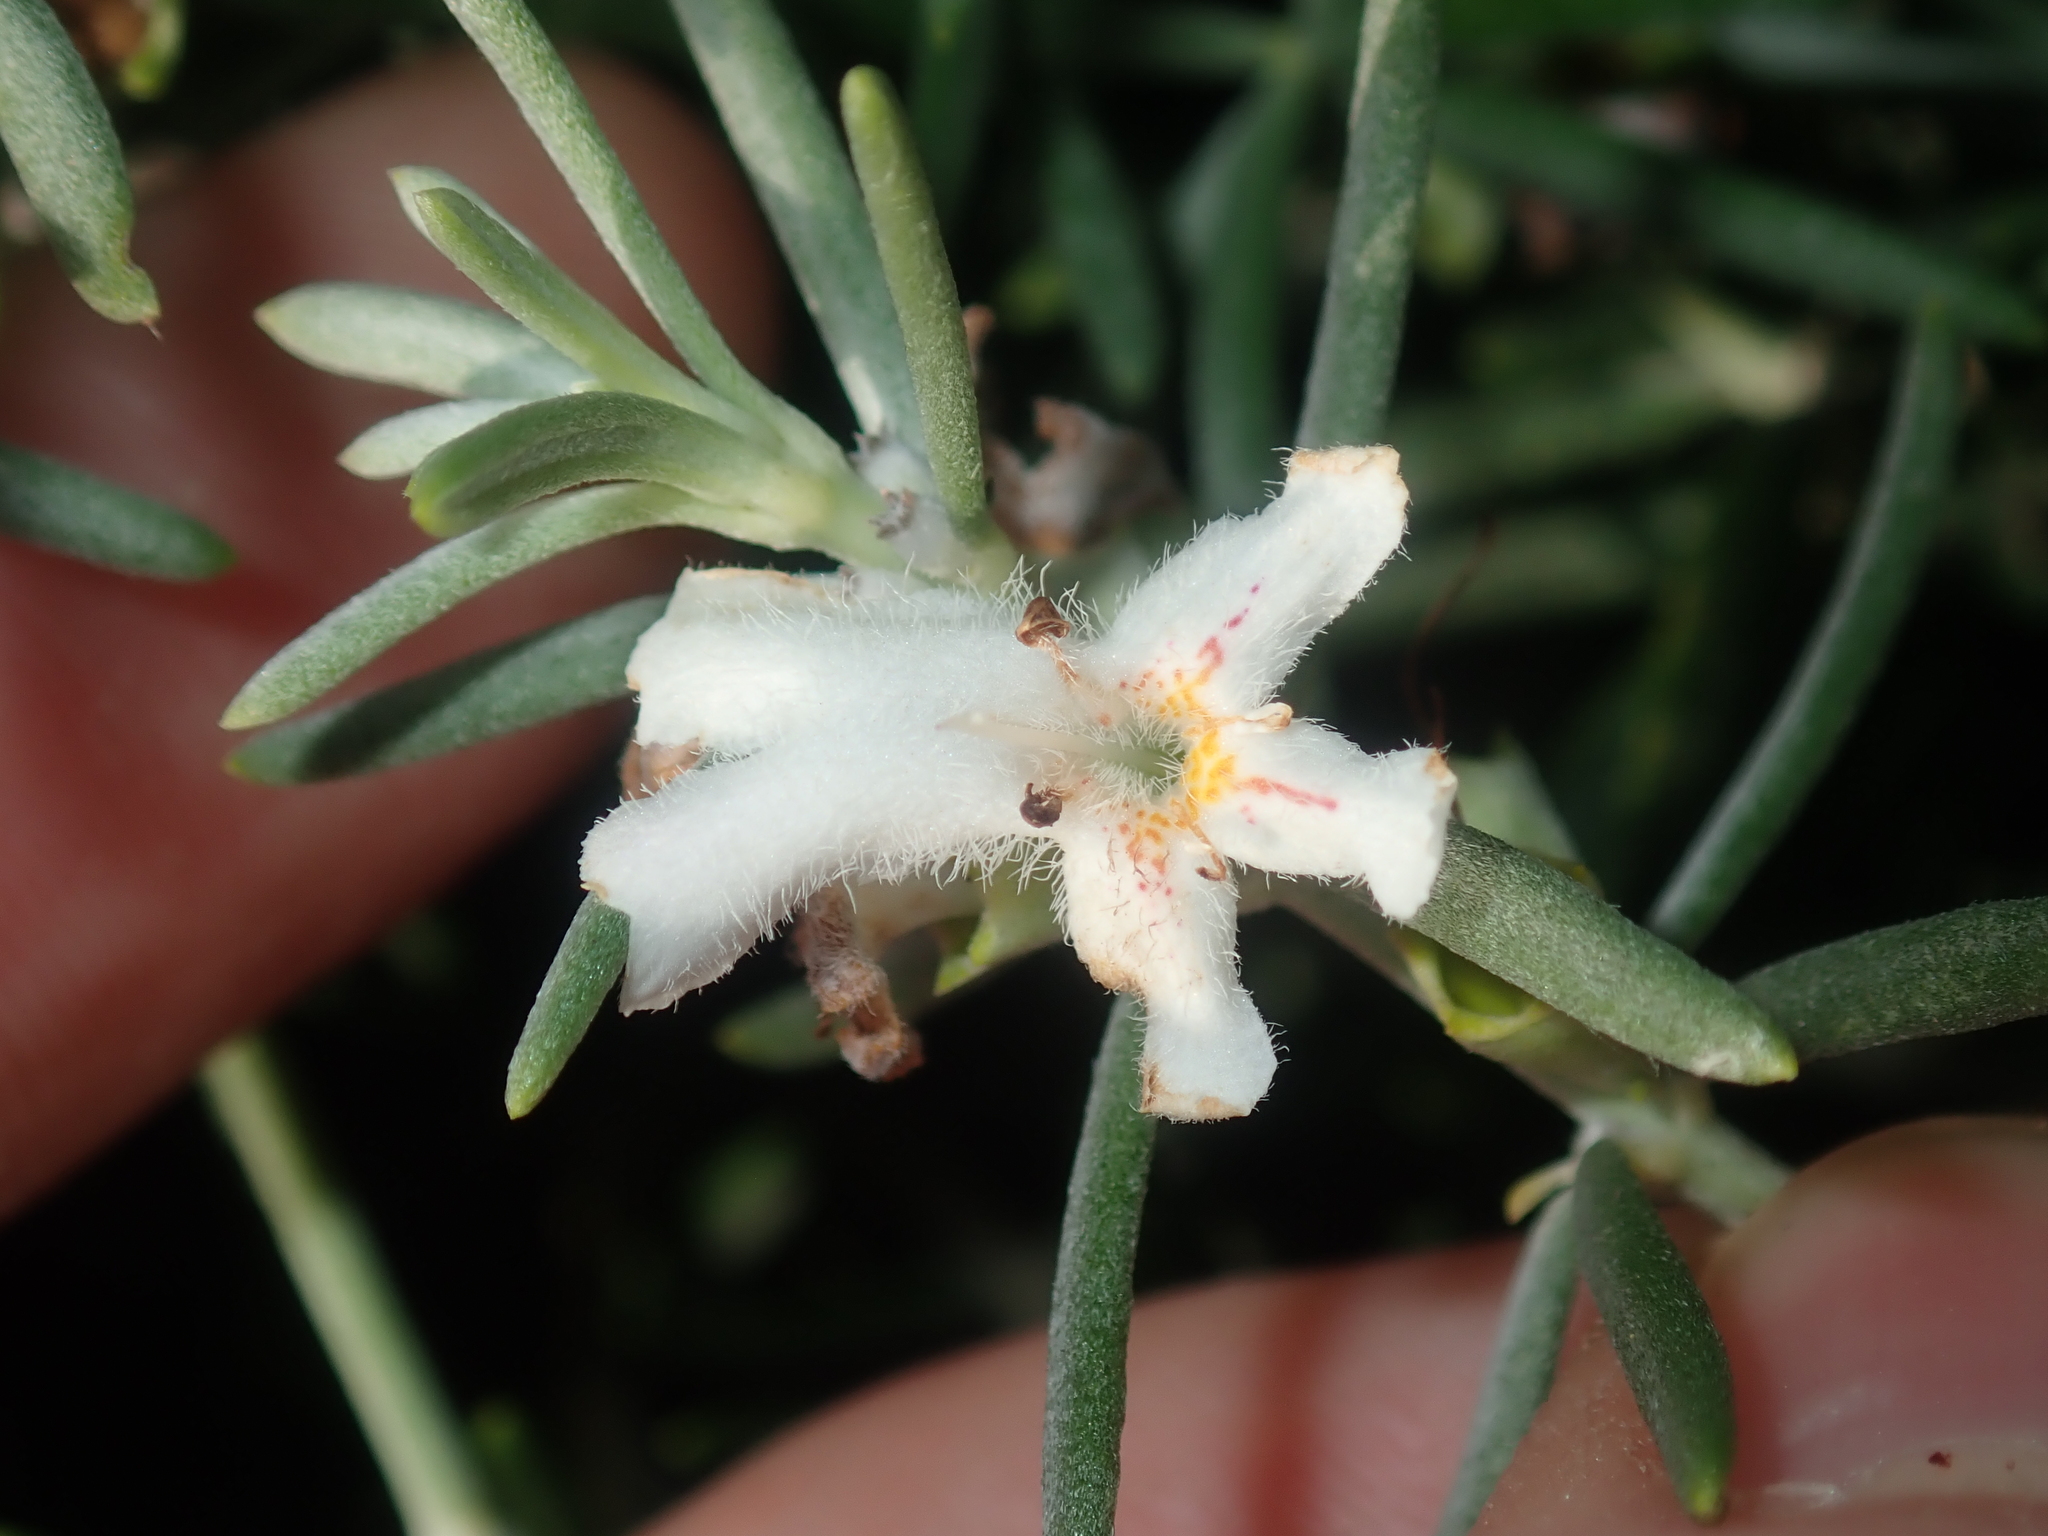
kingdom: Plantae
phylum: Tracheophyta
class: Magnoliopsida
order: Lamiales
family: Lamiaceae
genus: Westringia
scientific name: Westringia dampieri
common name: Shore westringia
